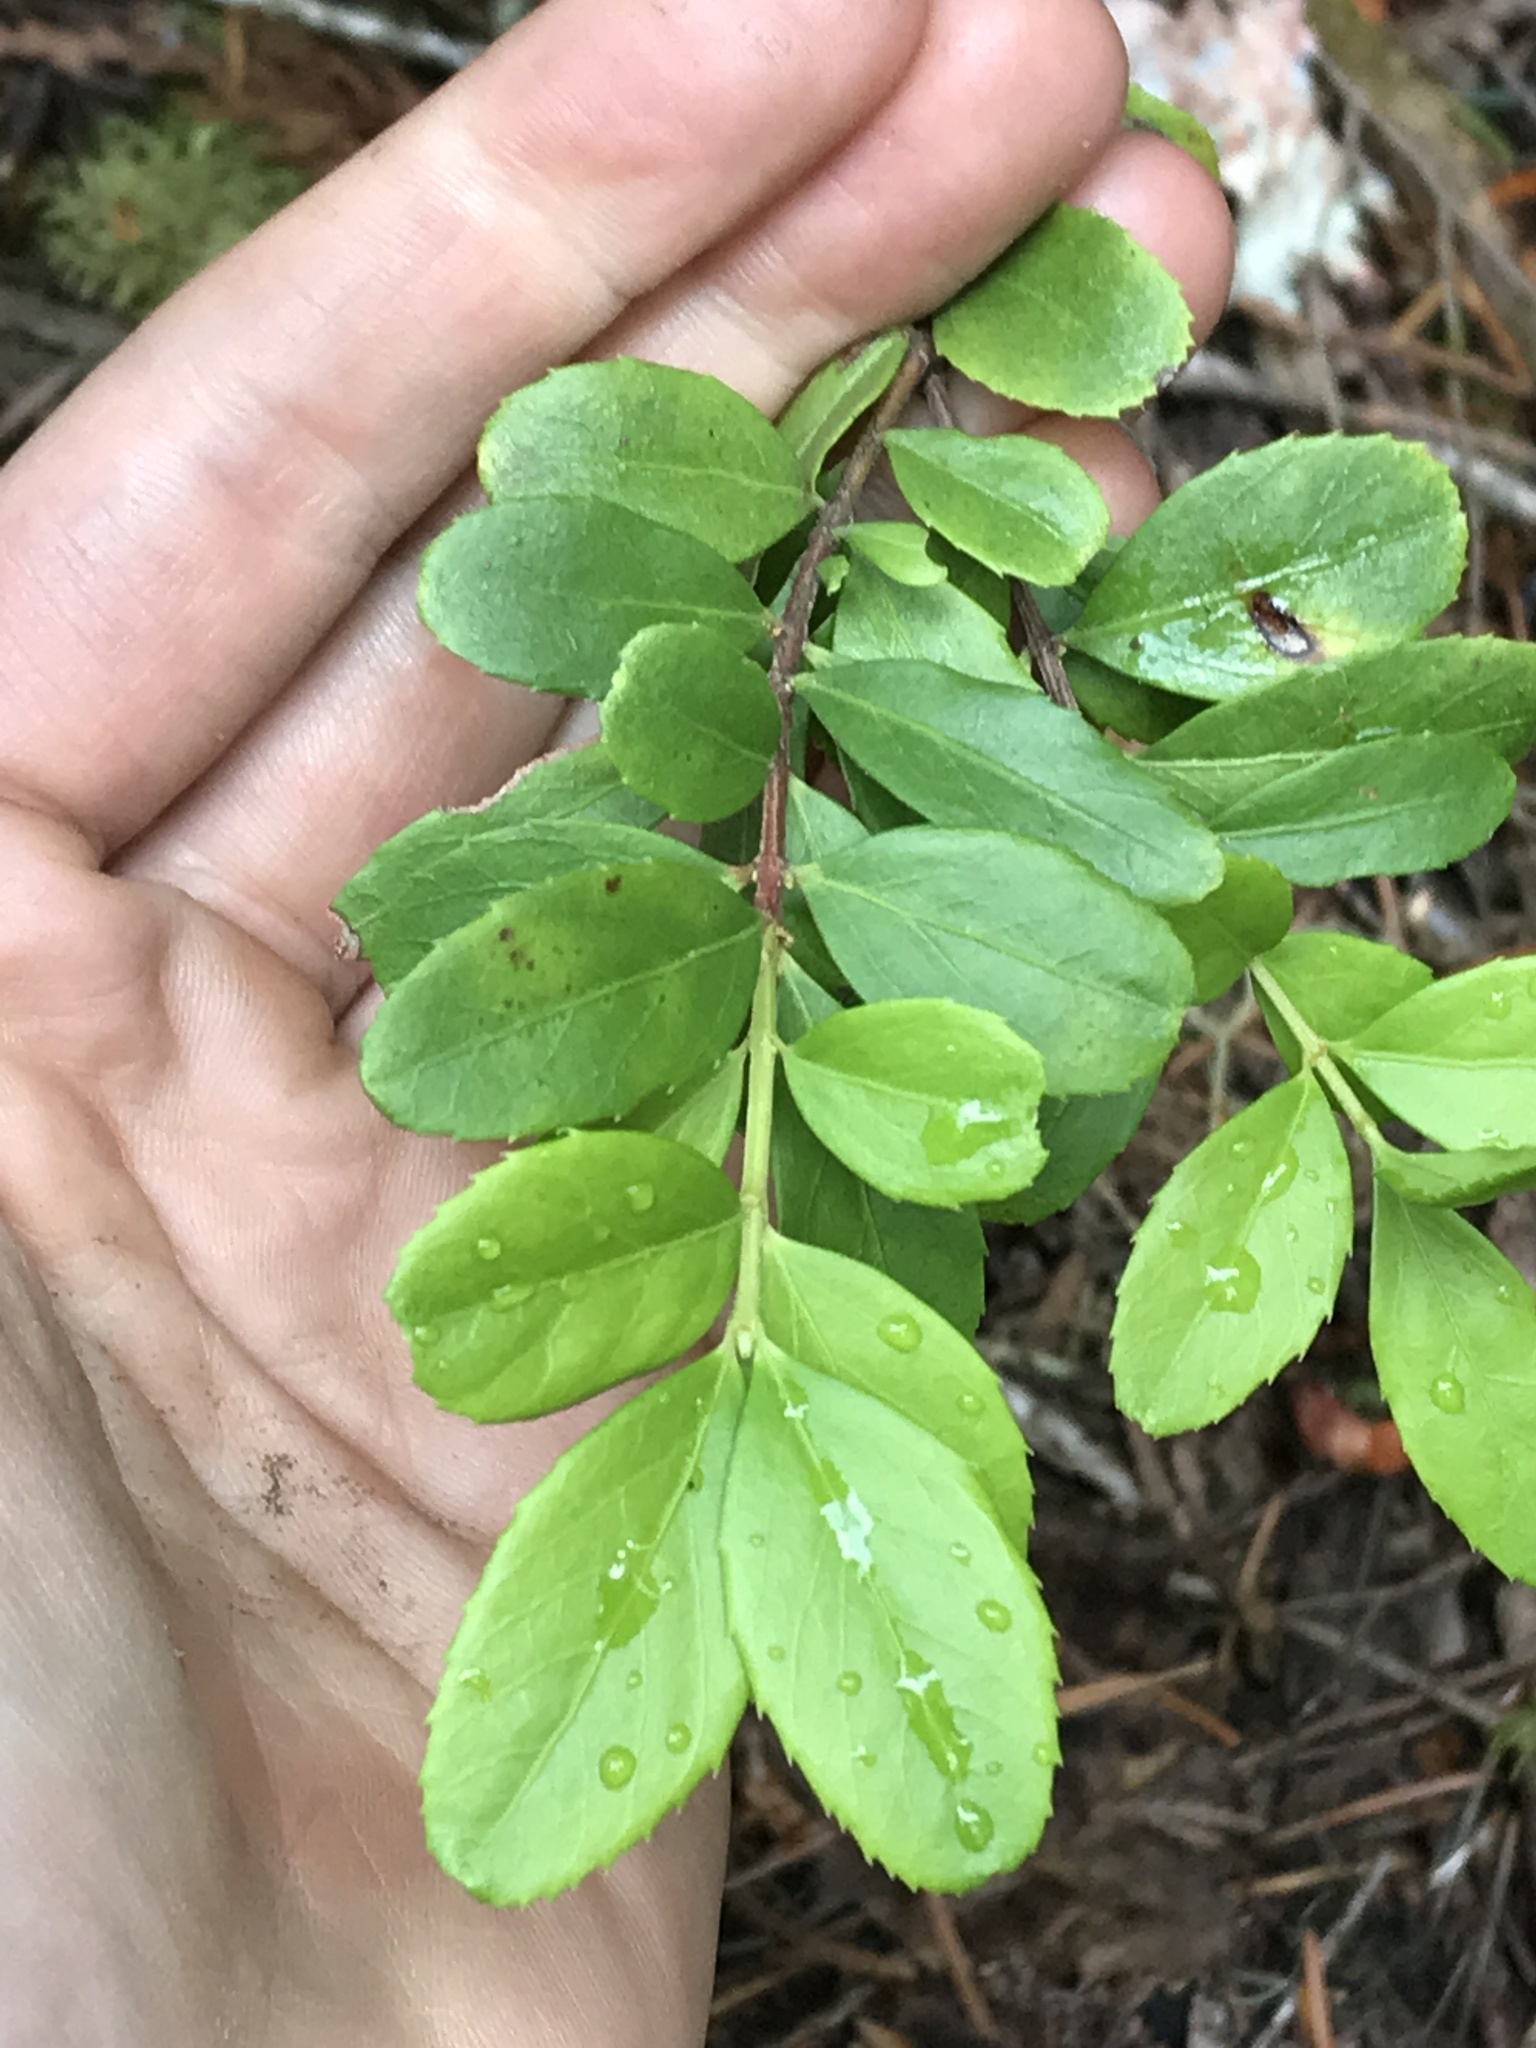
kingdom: Plantae
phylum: Tracheophyta
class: Magnoliopsida
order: Celastrales
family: Celastraceae
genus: Paxistima
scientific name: Paxistima myrsinites
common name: Mountain-lover
